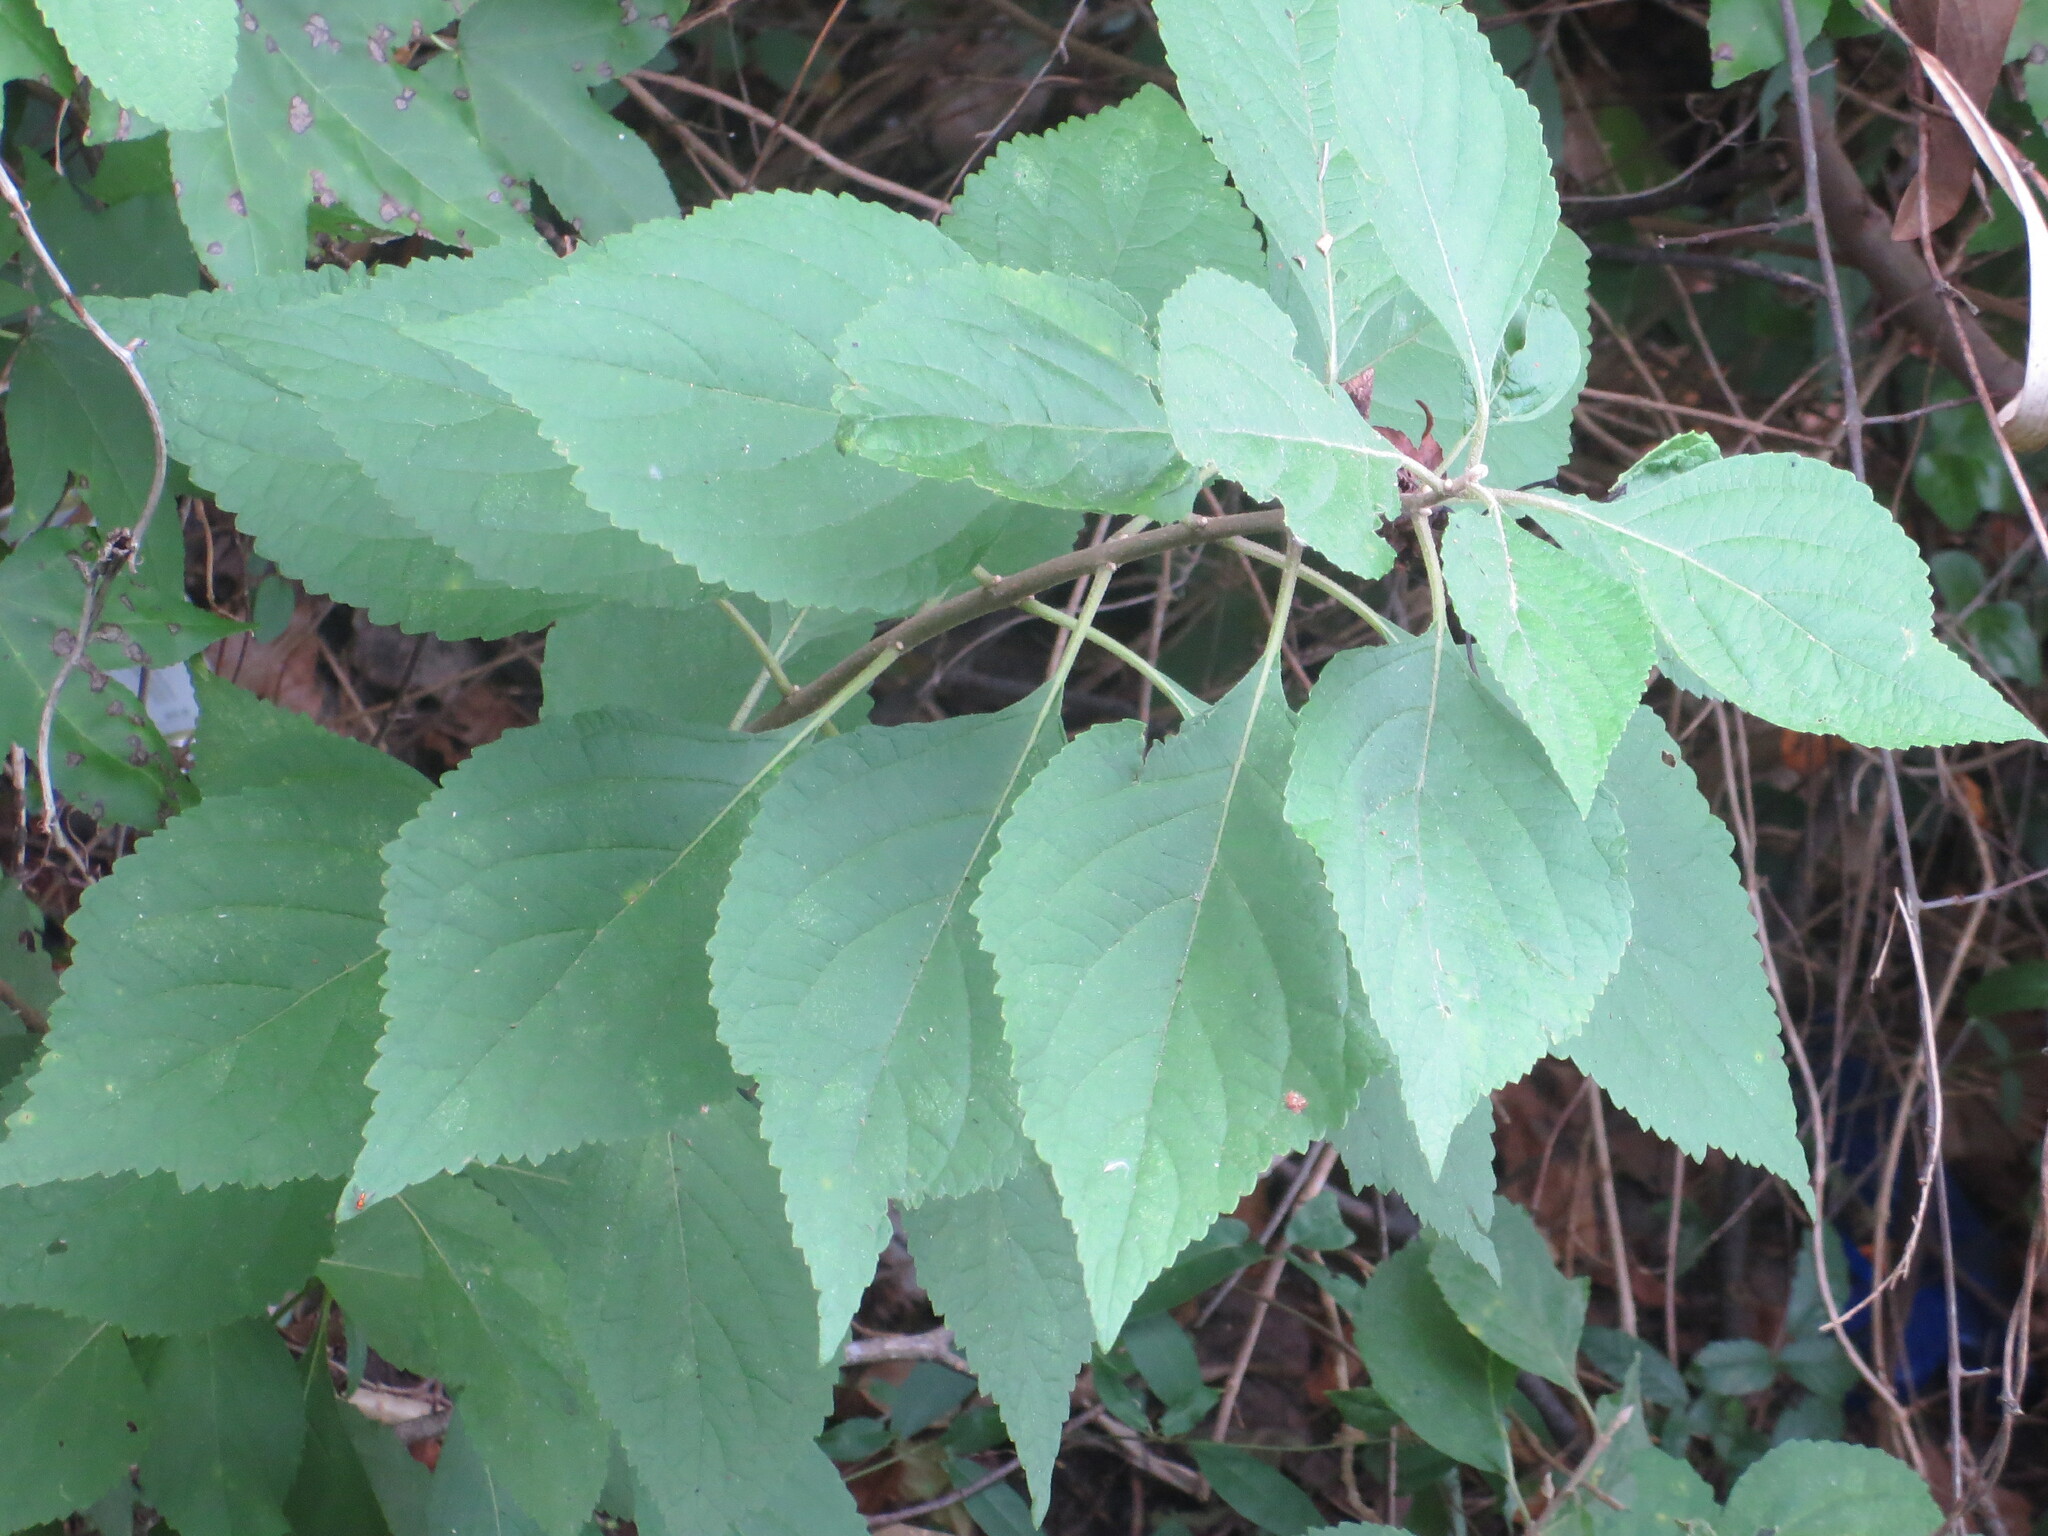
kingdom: Plantae
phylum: Tracheophyta
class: Magnoliopsida
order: Lamiales
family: Lamiaceae
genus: Callicarpa
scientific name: Callicarpa americana
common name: American beautyberry
